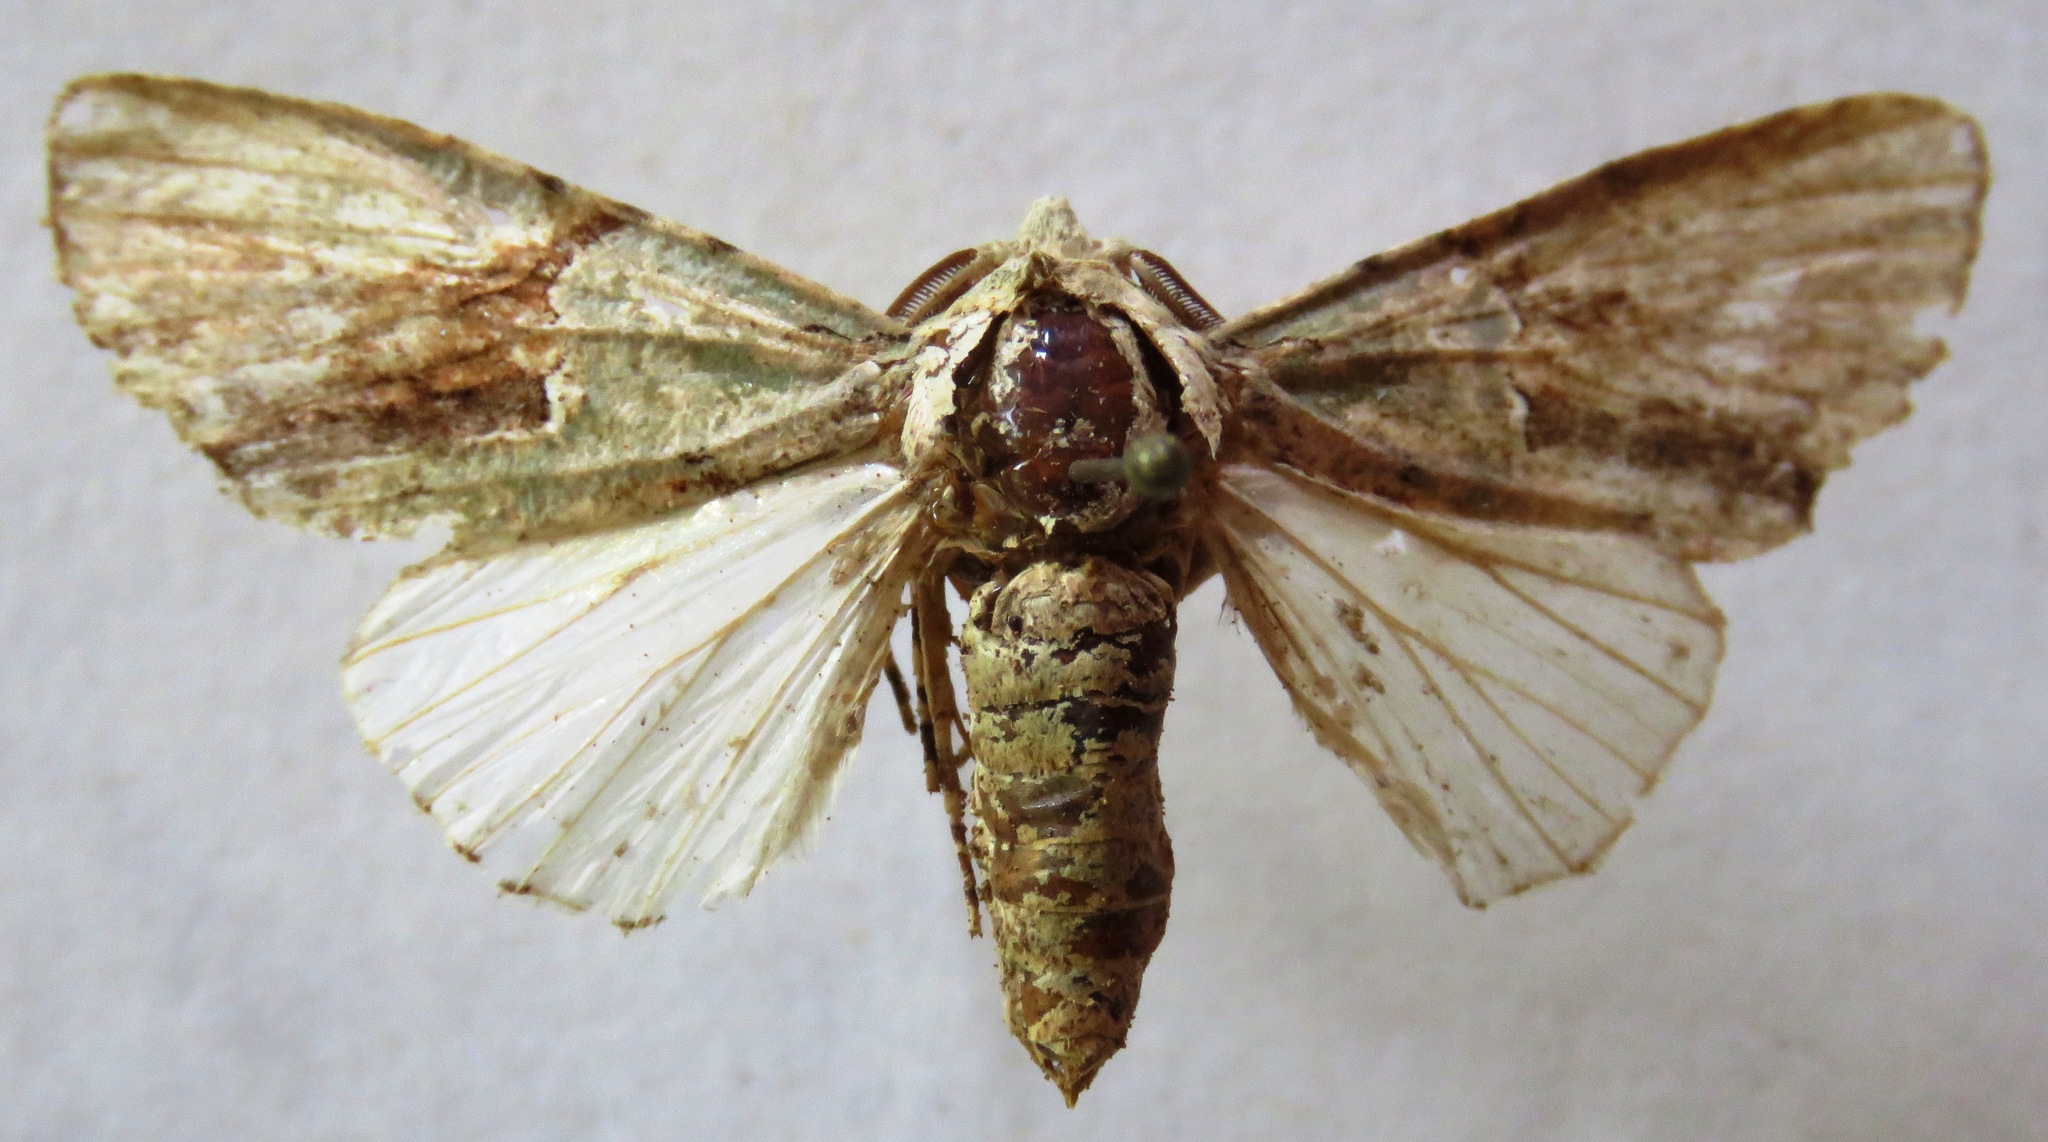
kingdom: Animalia
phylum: Arthropoda
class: Insecta
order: Lepidoptera
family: Noctuidae
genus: Stauropides
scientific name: Stauropides persimilis
